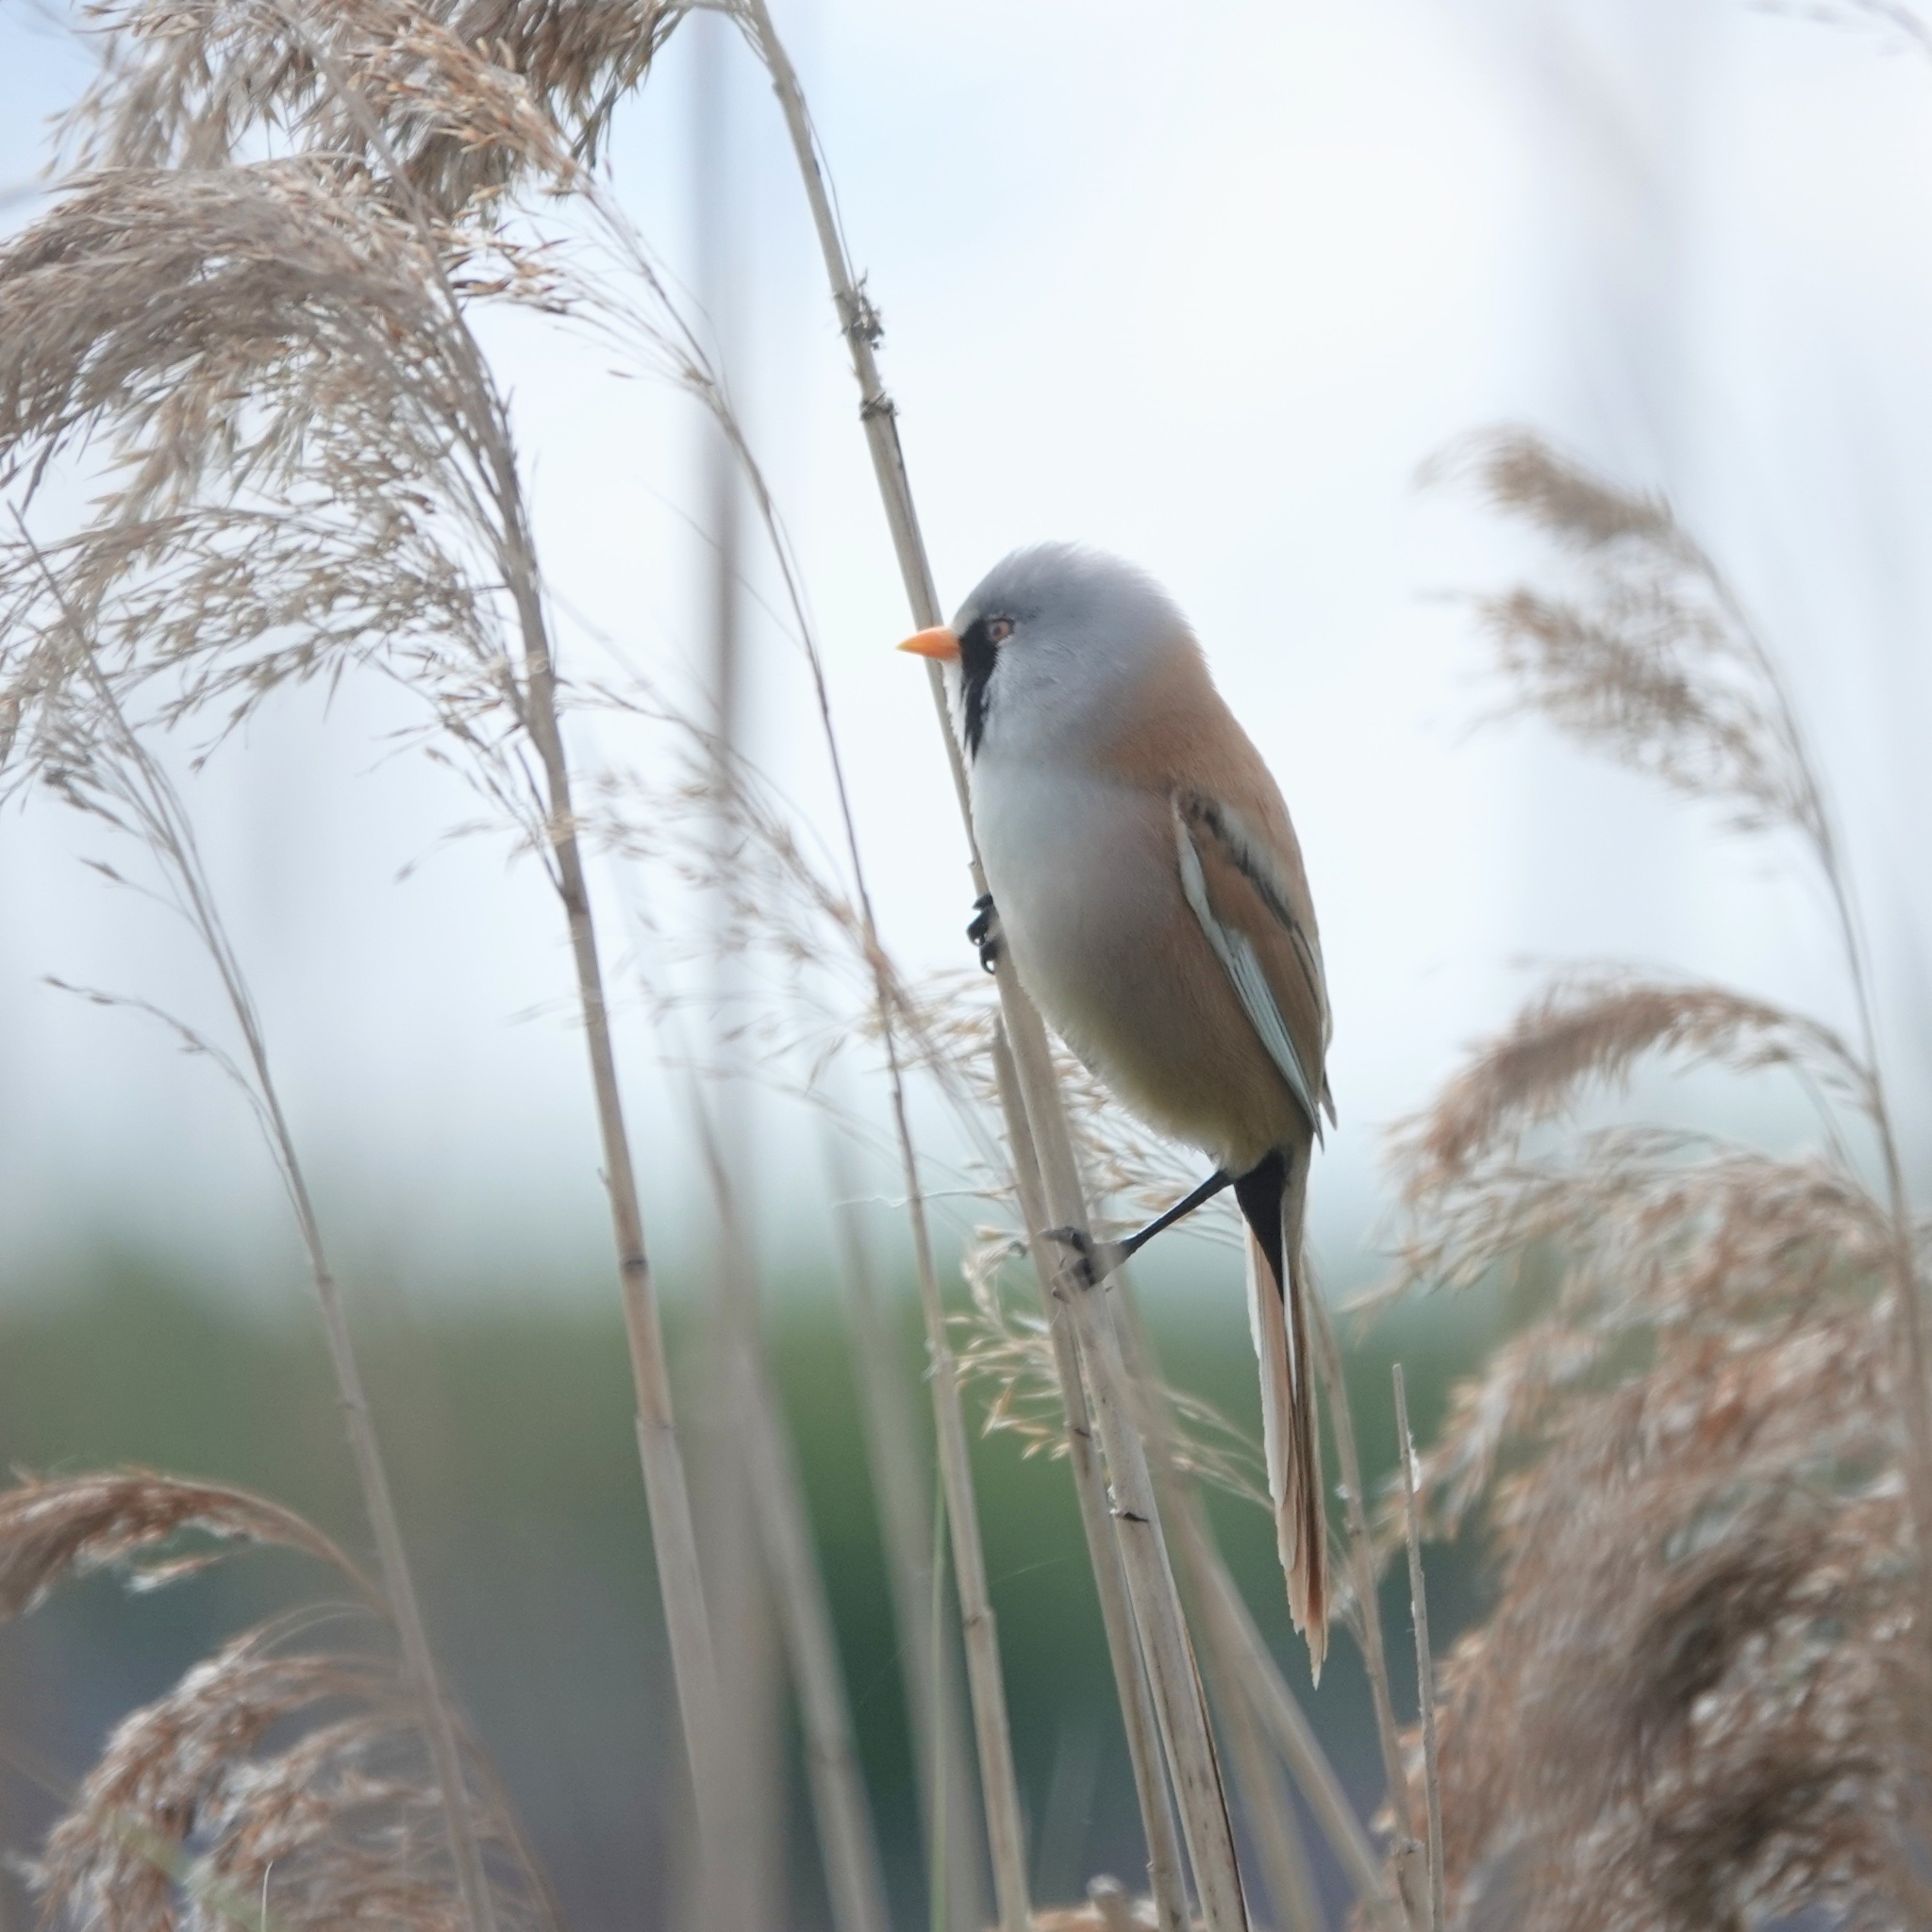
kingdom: Animalia
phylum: Chordata
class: Aves
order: Passeriformes
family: Panuridae
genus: Panurus
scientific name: Panurus biarmicus
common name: Bearded reedling
